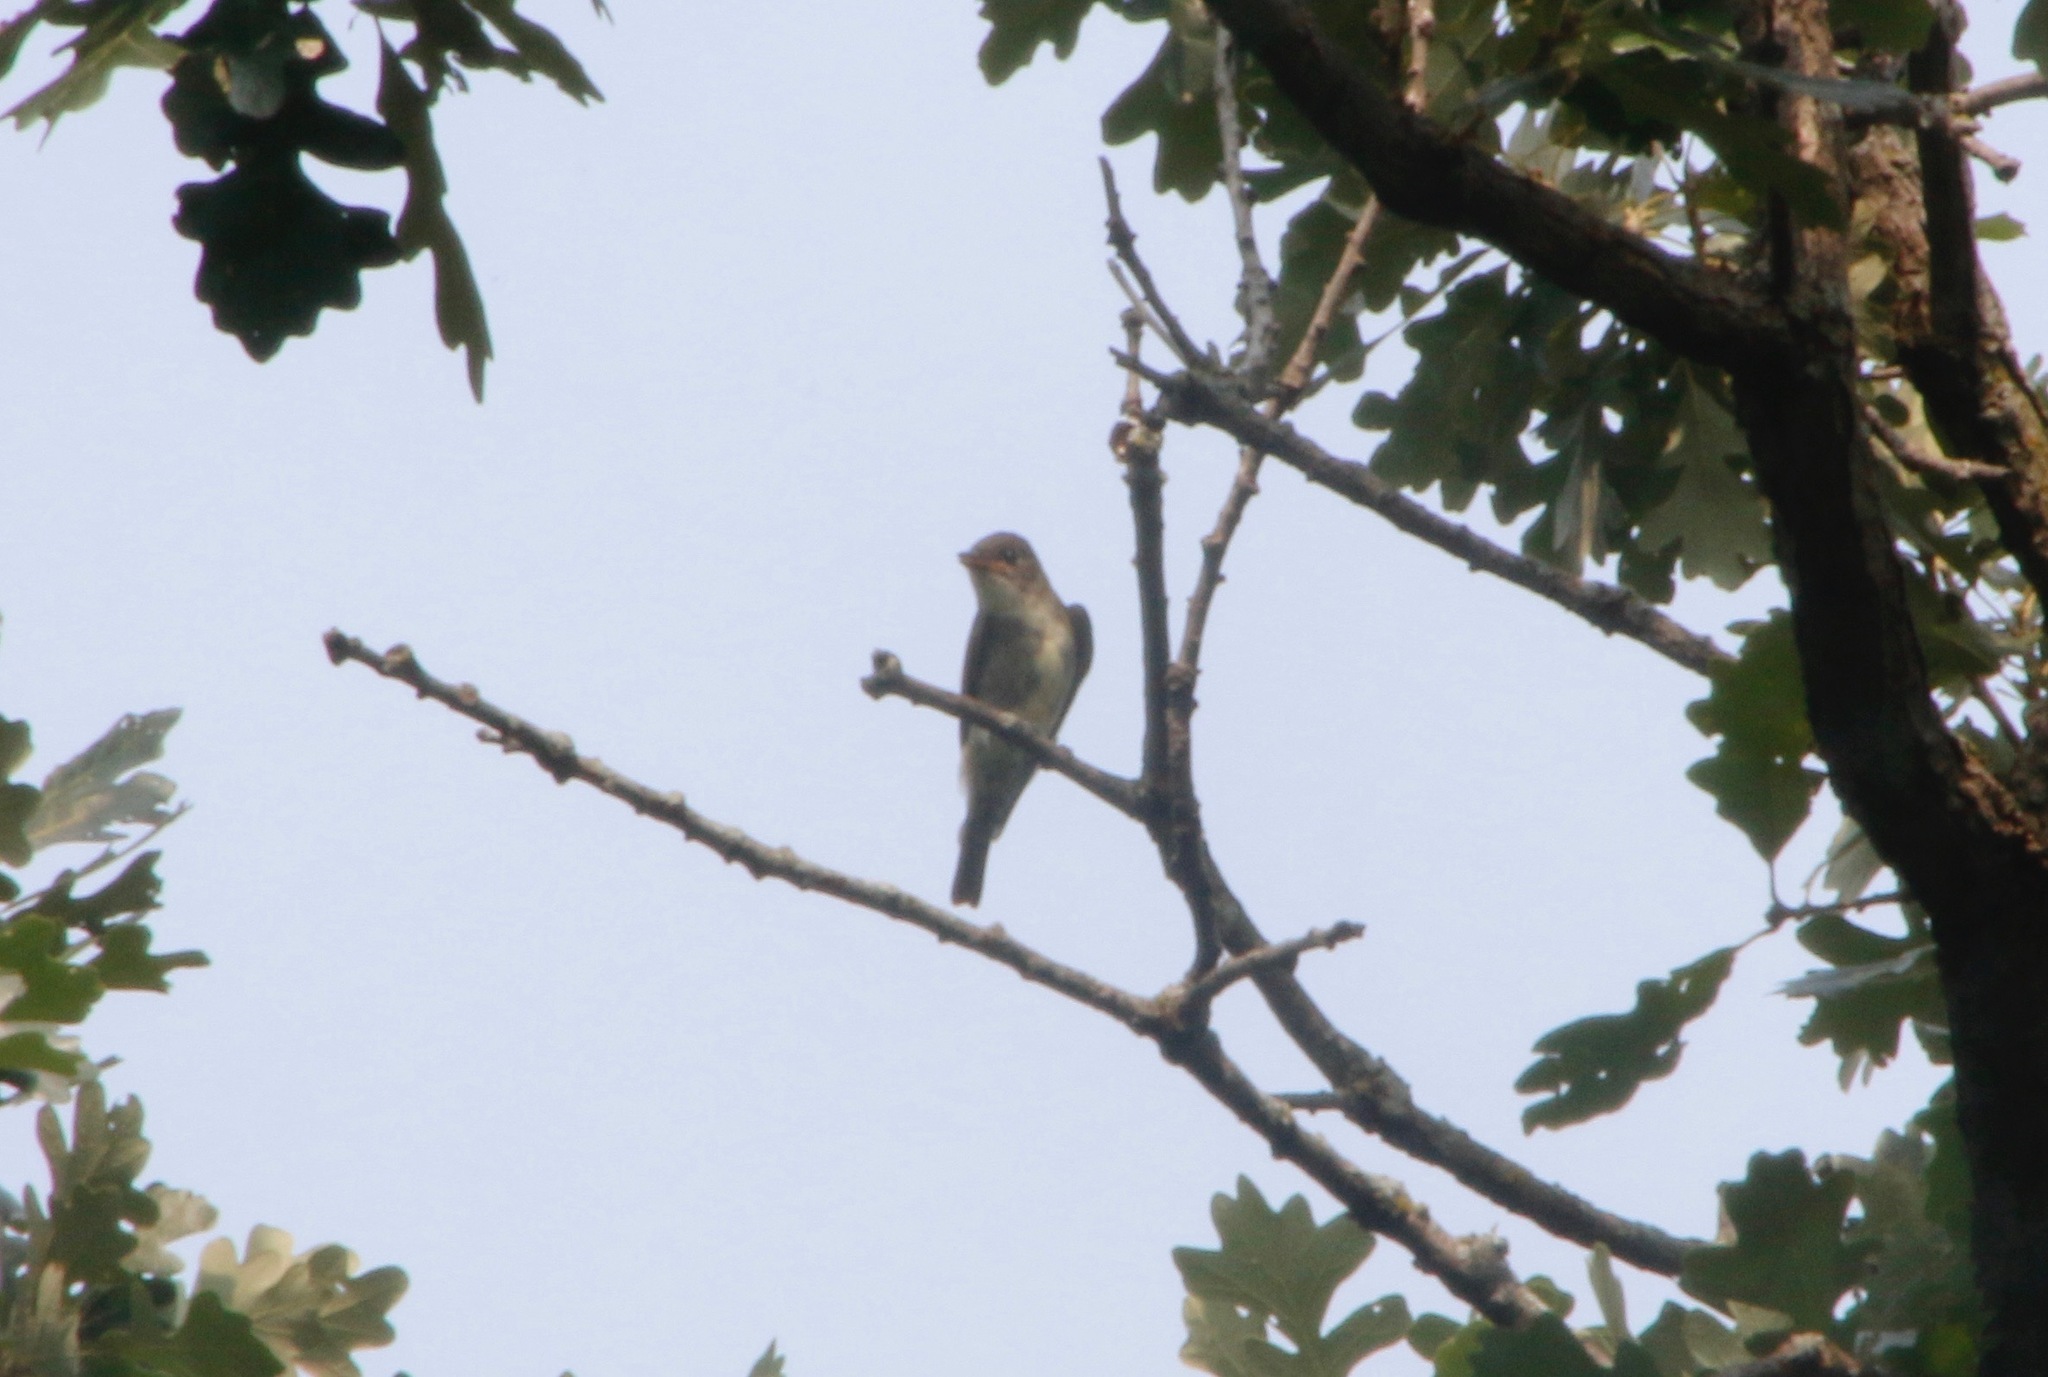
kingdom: Animalia
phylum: Chordata
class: Aves
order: Passeriformes
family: Tyrannidae
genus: Contopus
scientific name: Contopus cooperi
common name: Olive-sided flycatcher
